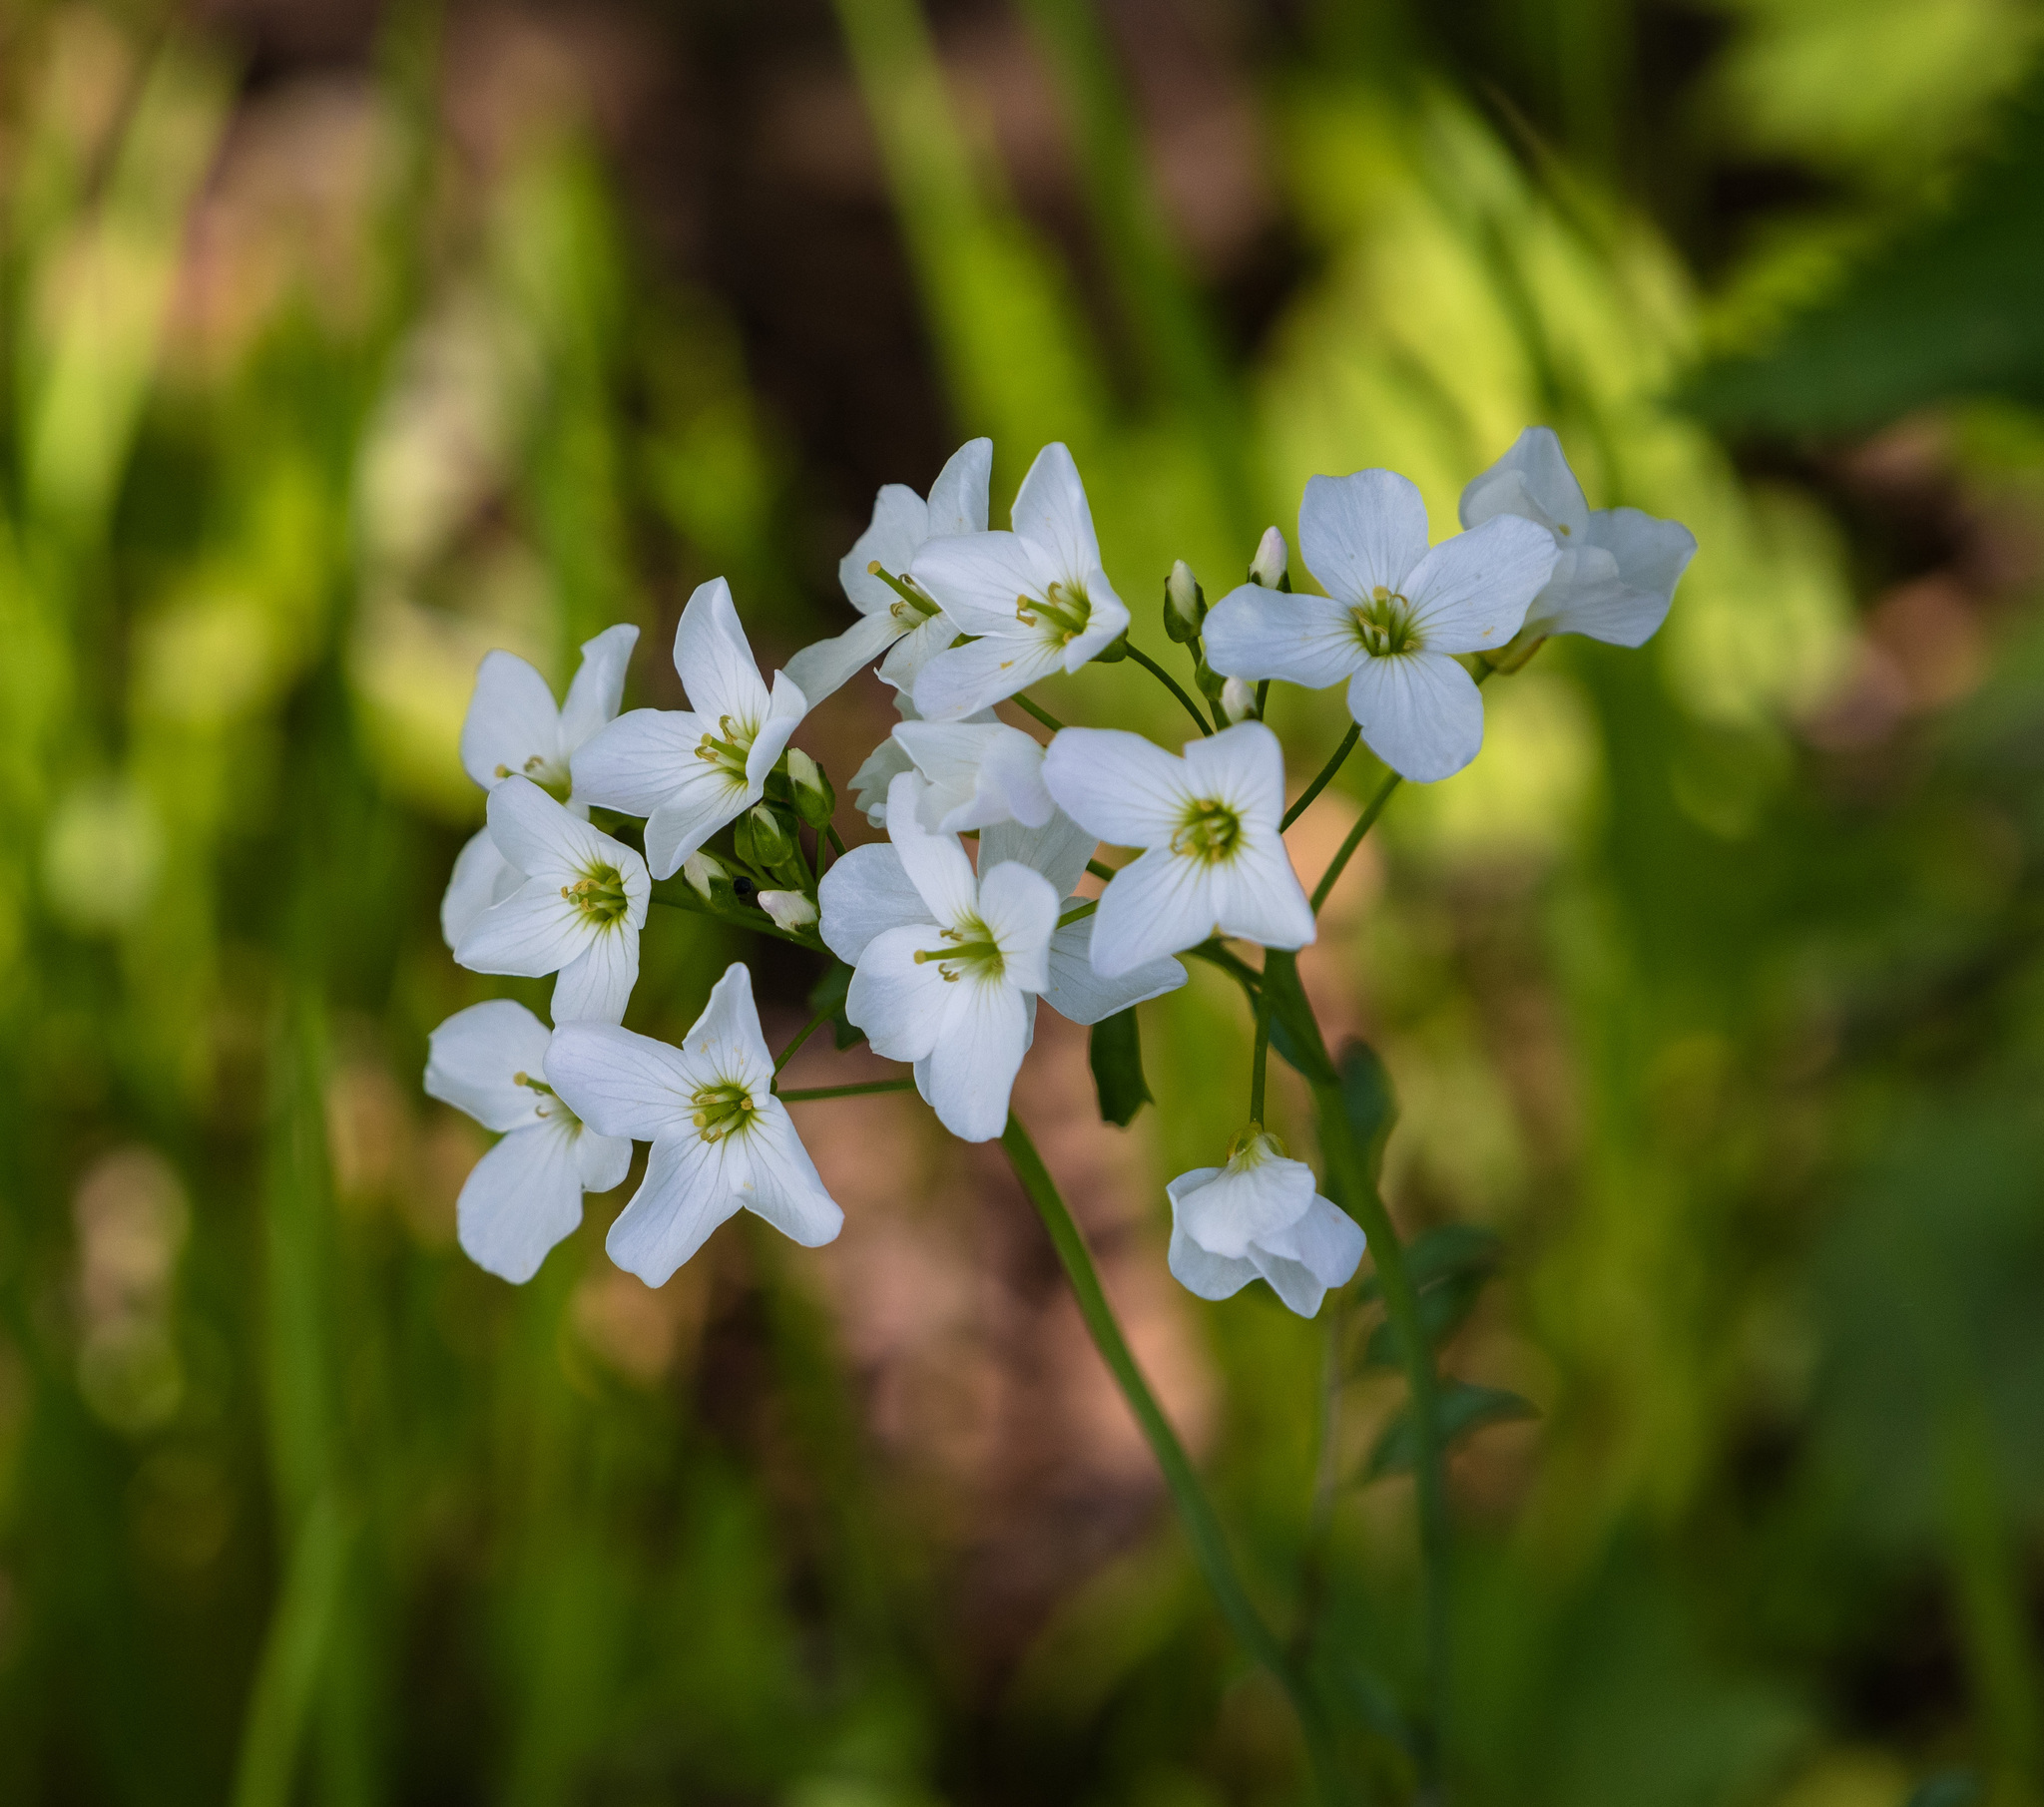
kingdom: Plantae
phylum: Tracheophyta
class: Magnoliopsida
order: Brassicales
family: Brassicaceae
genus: Cardamine
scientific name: Cardamine dentata
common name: Toothed bittercress
